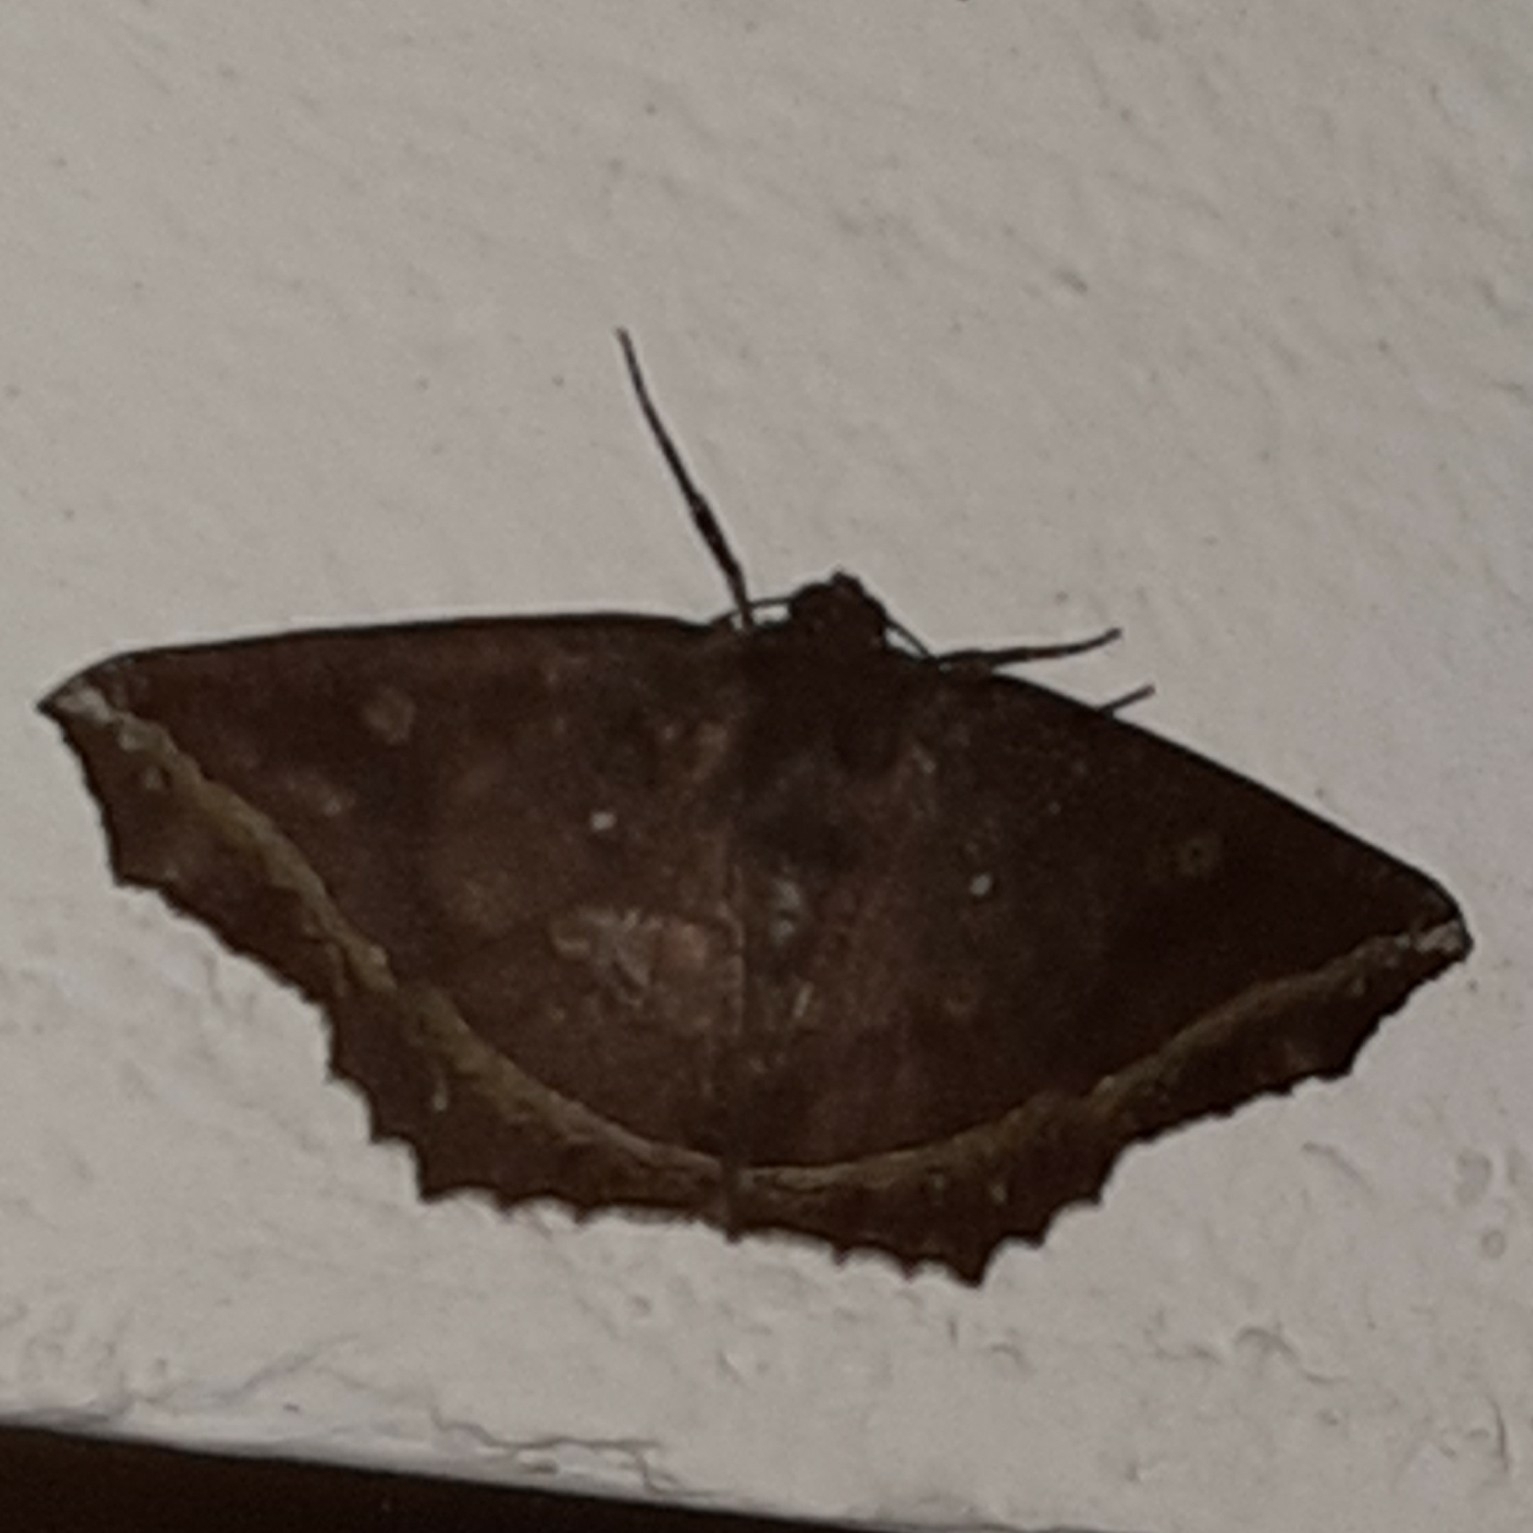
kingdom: Animalia
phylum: Arthropoda
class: Insecta
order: Lepidoptera
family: Geometridae
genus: Synnomos
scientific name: Synnomos firmamentaria
